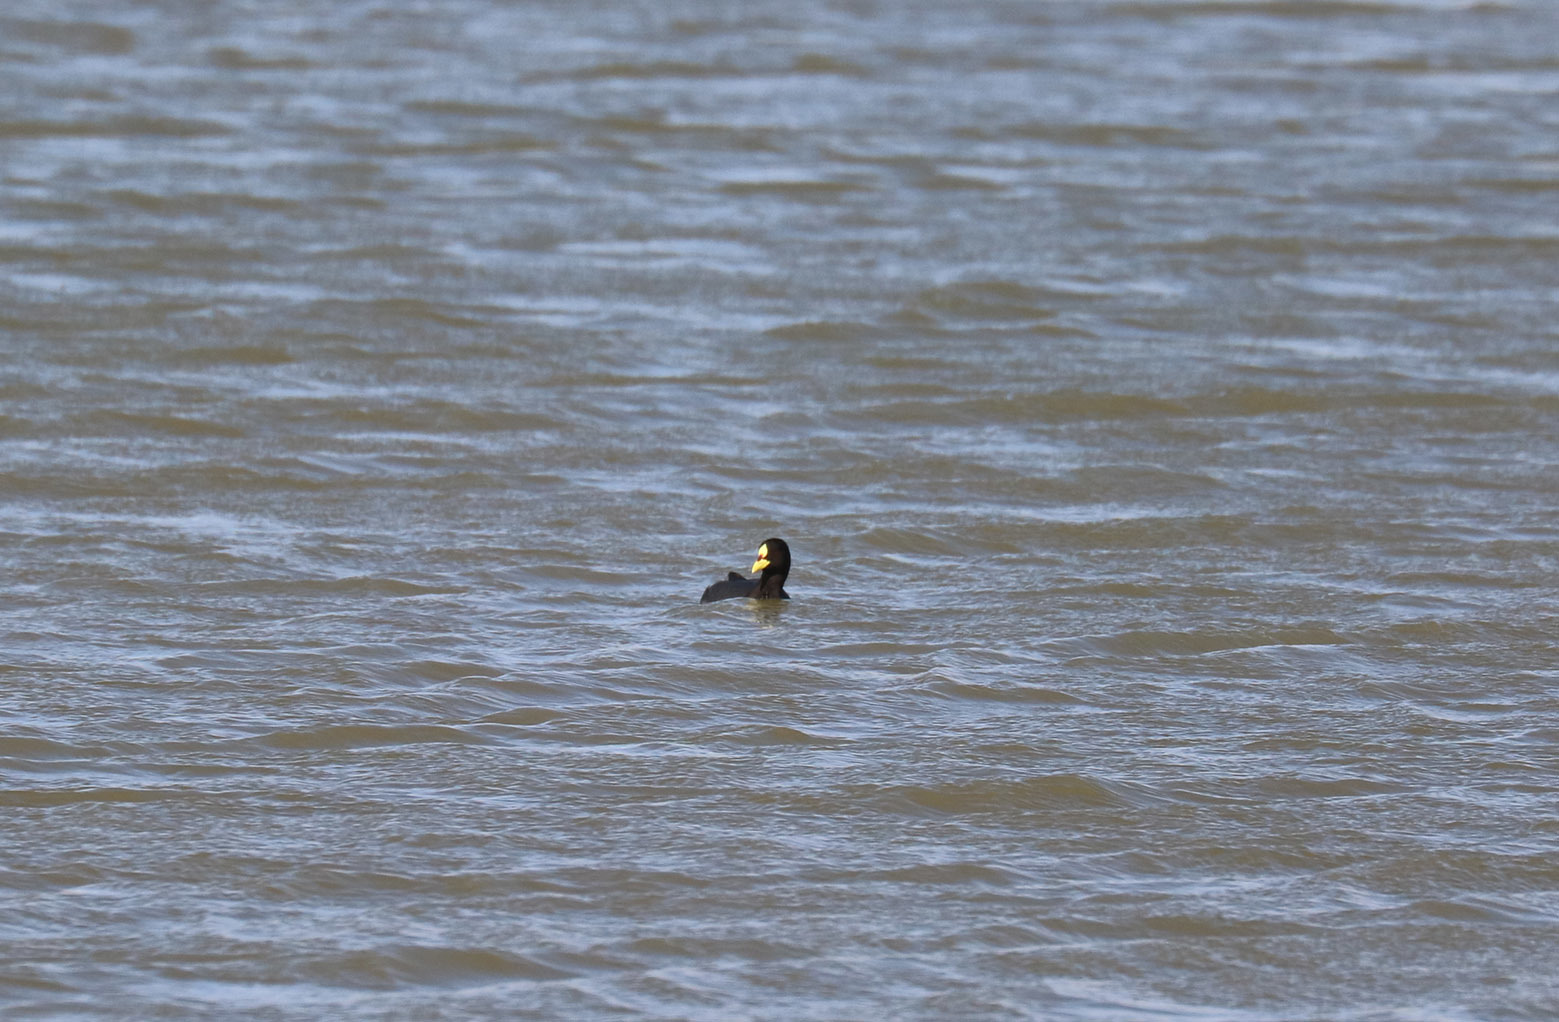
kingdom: Animalia
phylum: Chordata
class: Aves
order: Gruiformes
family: Rallidae
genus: Fulica
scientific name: Fulica armillata
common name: Red-gartered coot
